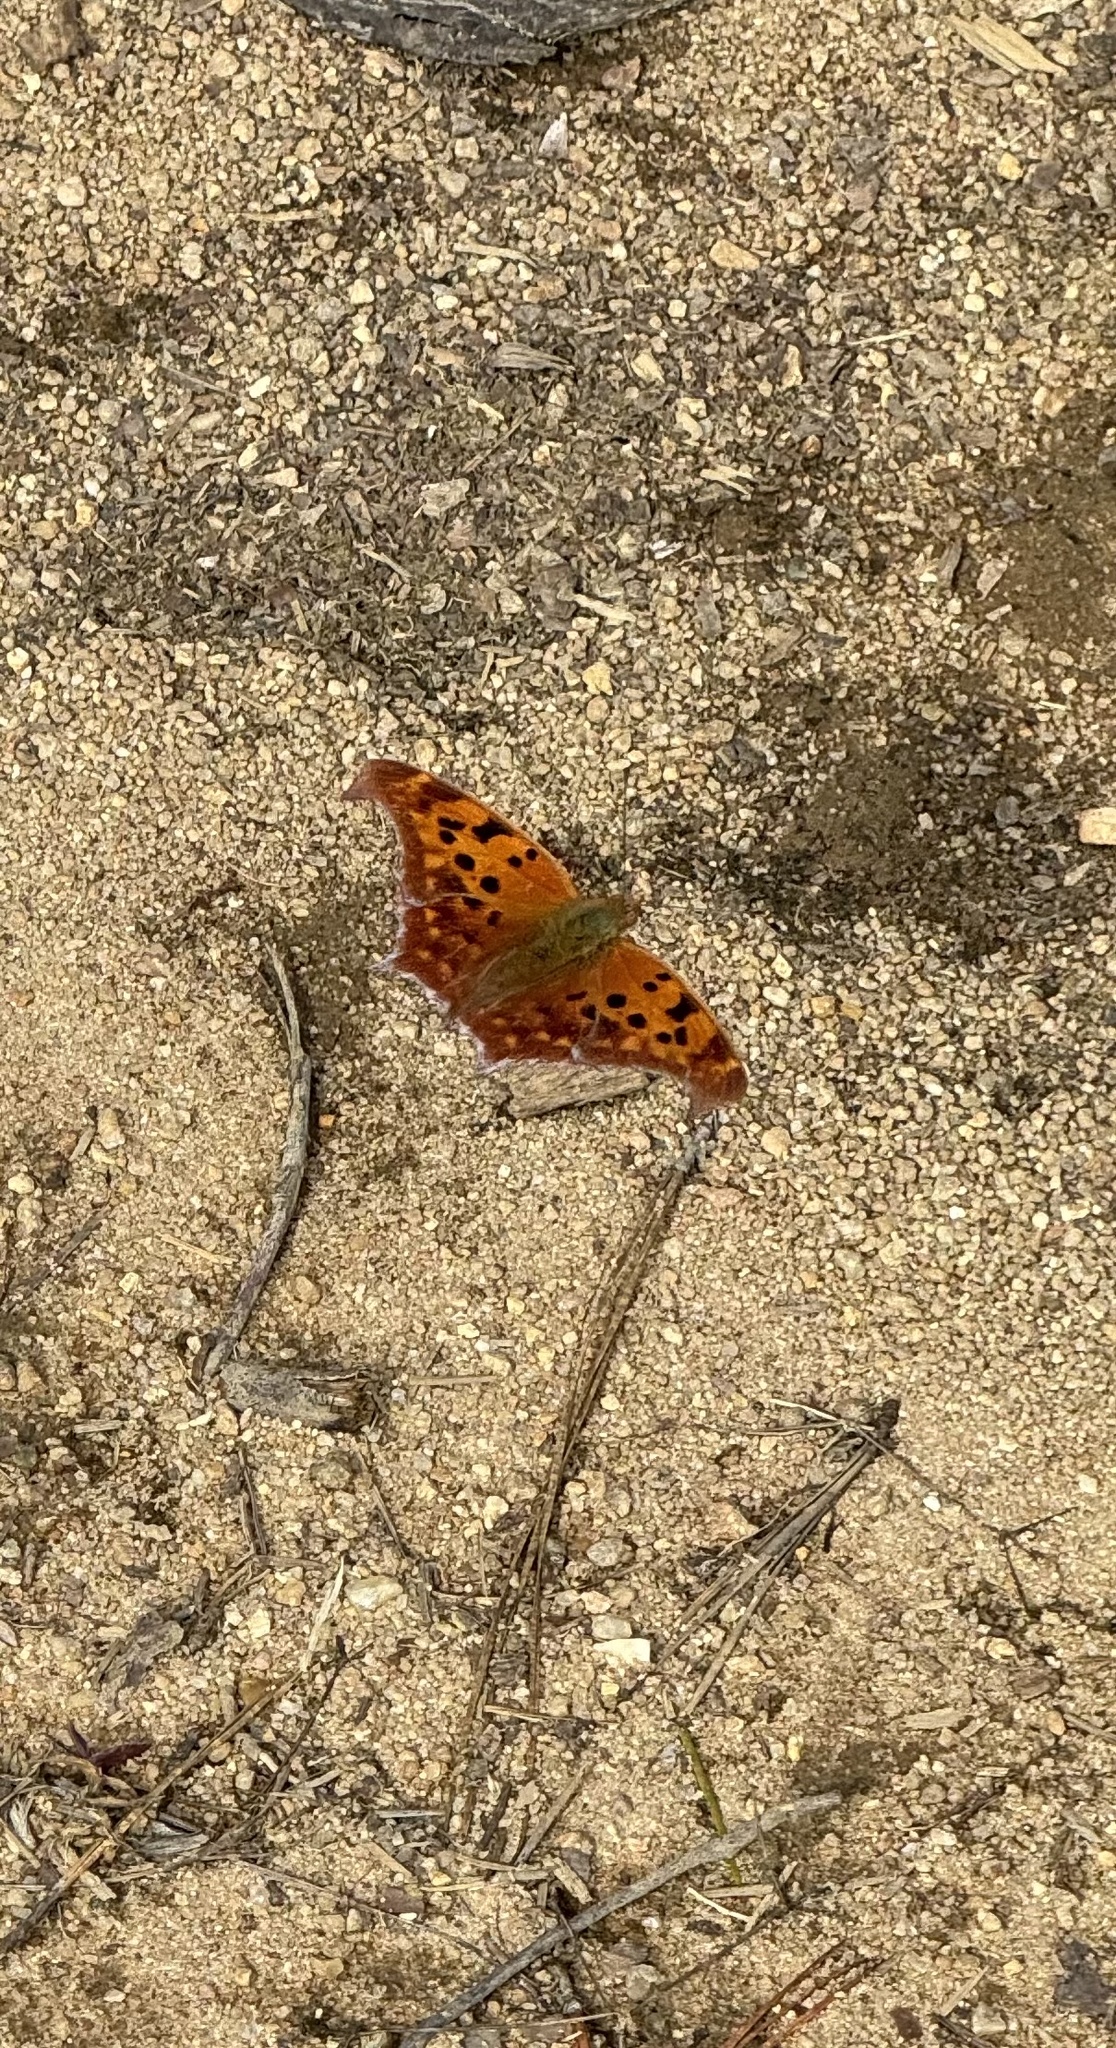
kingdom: Animalia
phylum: Arthropoda
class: Insecta
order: Lepidoptera
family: Nymphalidae
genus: Polygonia
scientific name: Polygonia interrogationis
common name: Question mark
